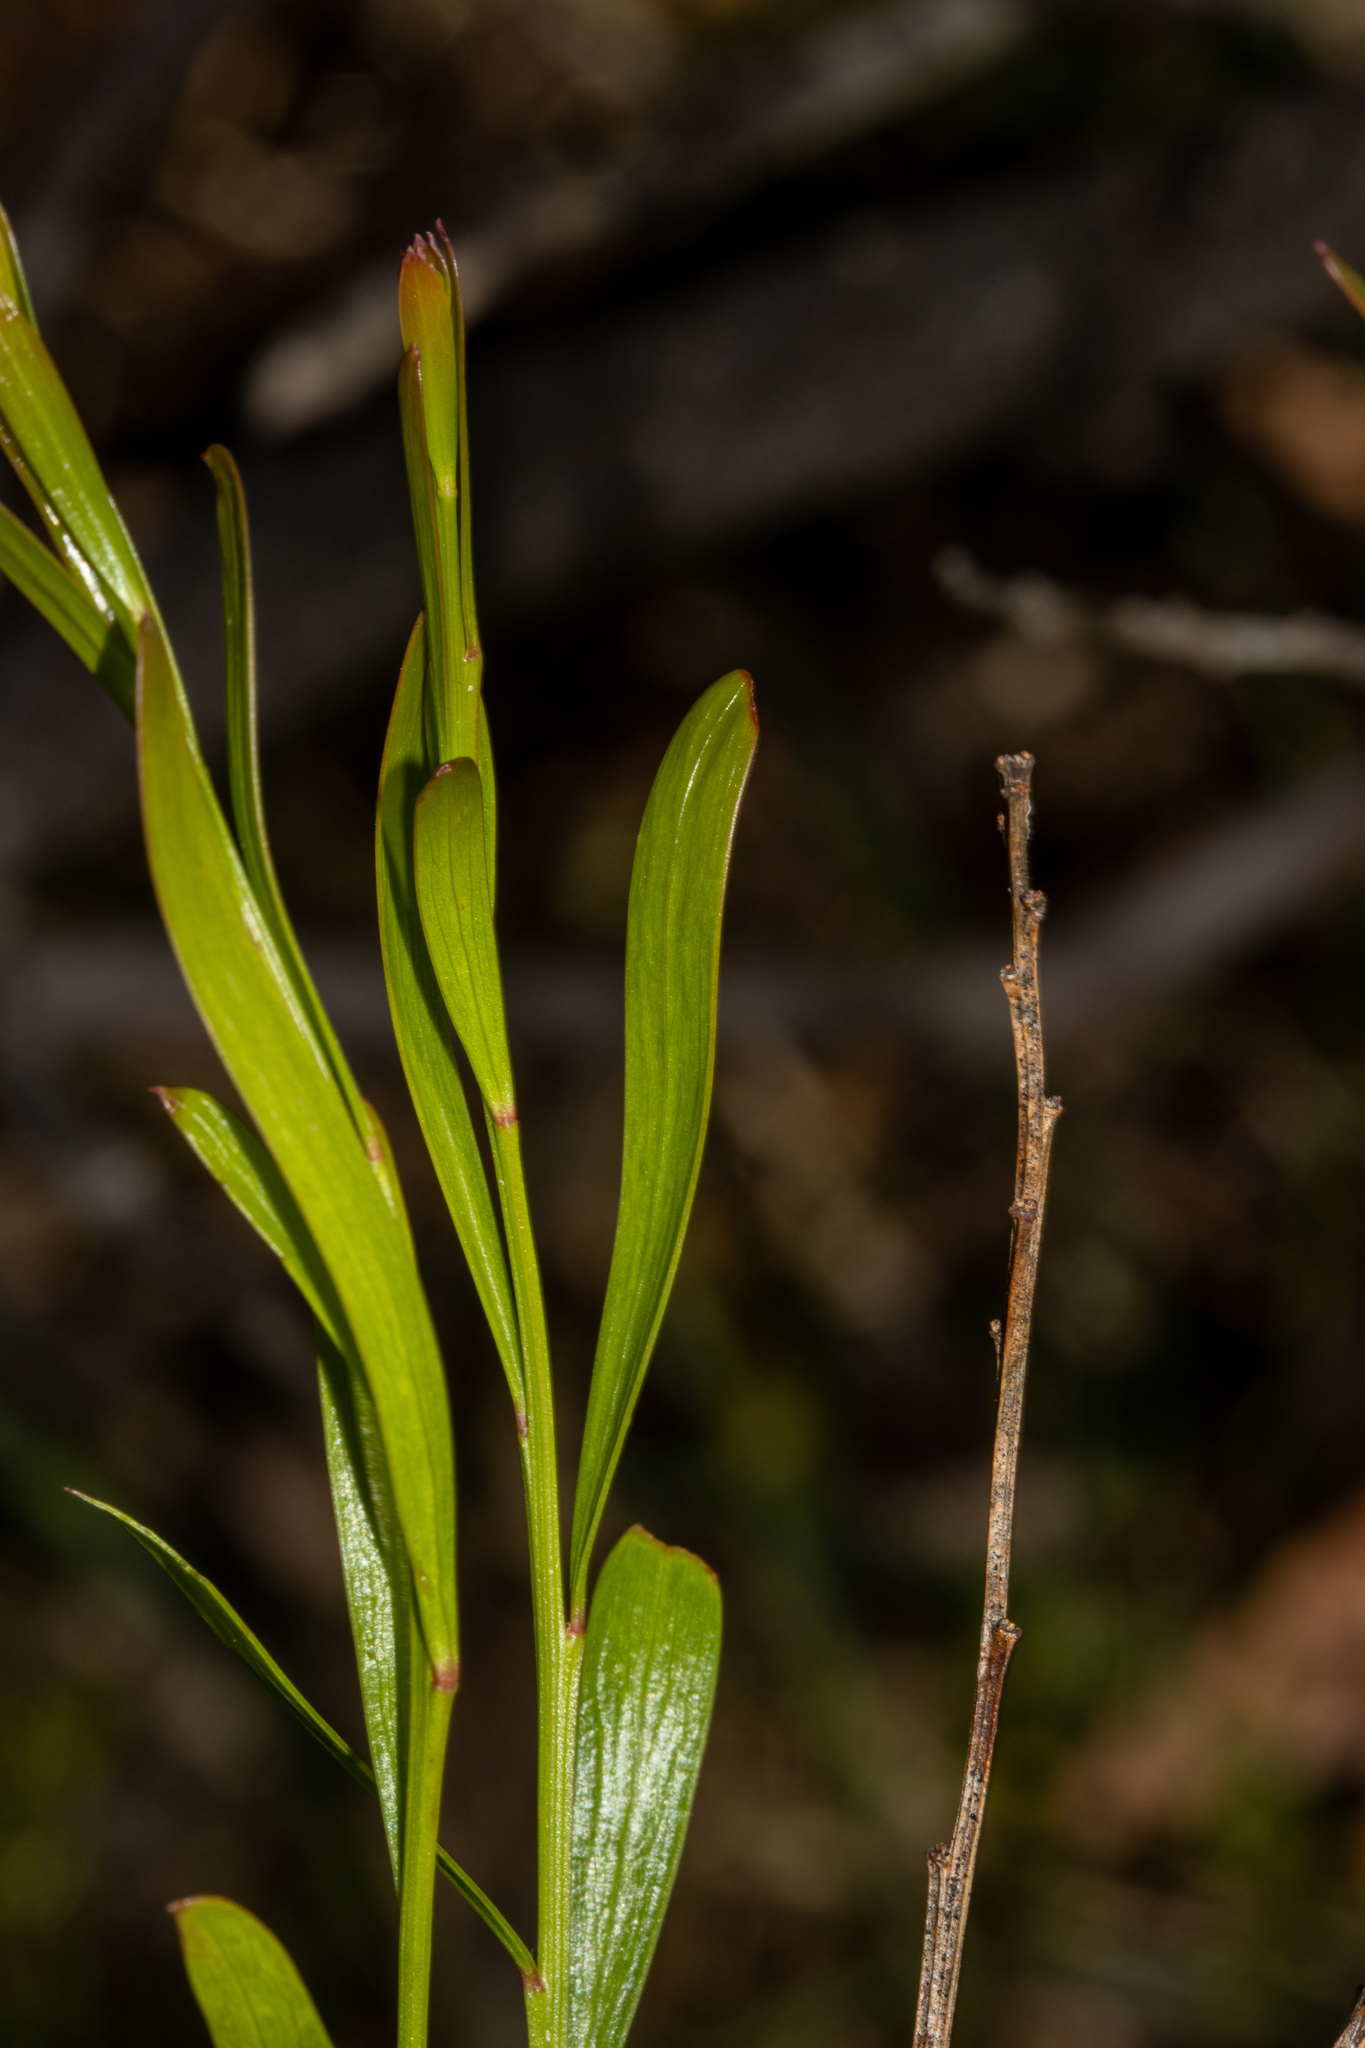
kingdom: Plantae
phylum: Tracheophyta
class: Magnoliopsida
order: Fabales
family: Fabaceae
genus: Daviesia
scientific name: Daviesia leptophylla
